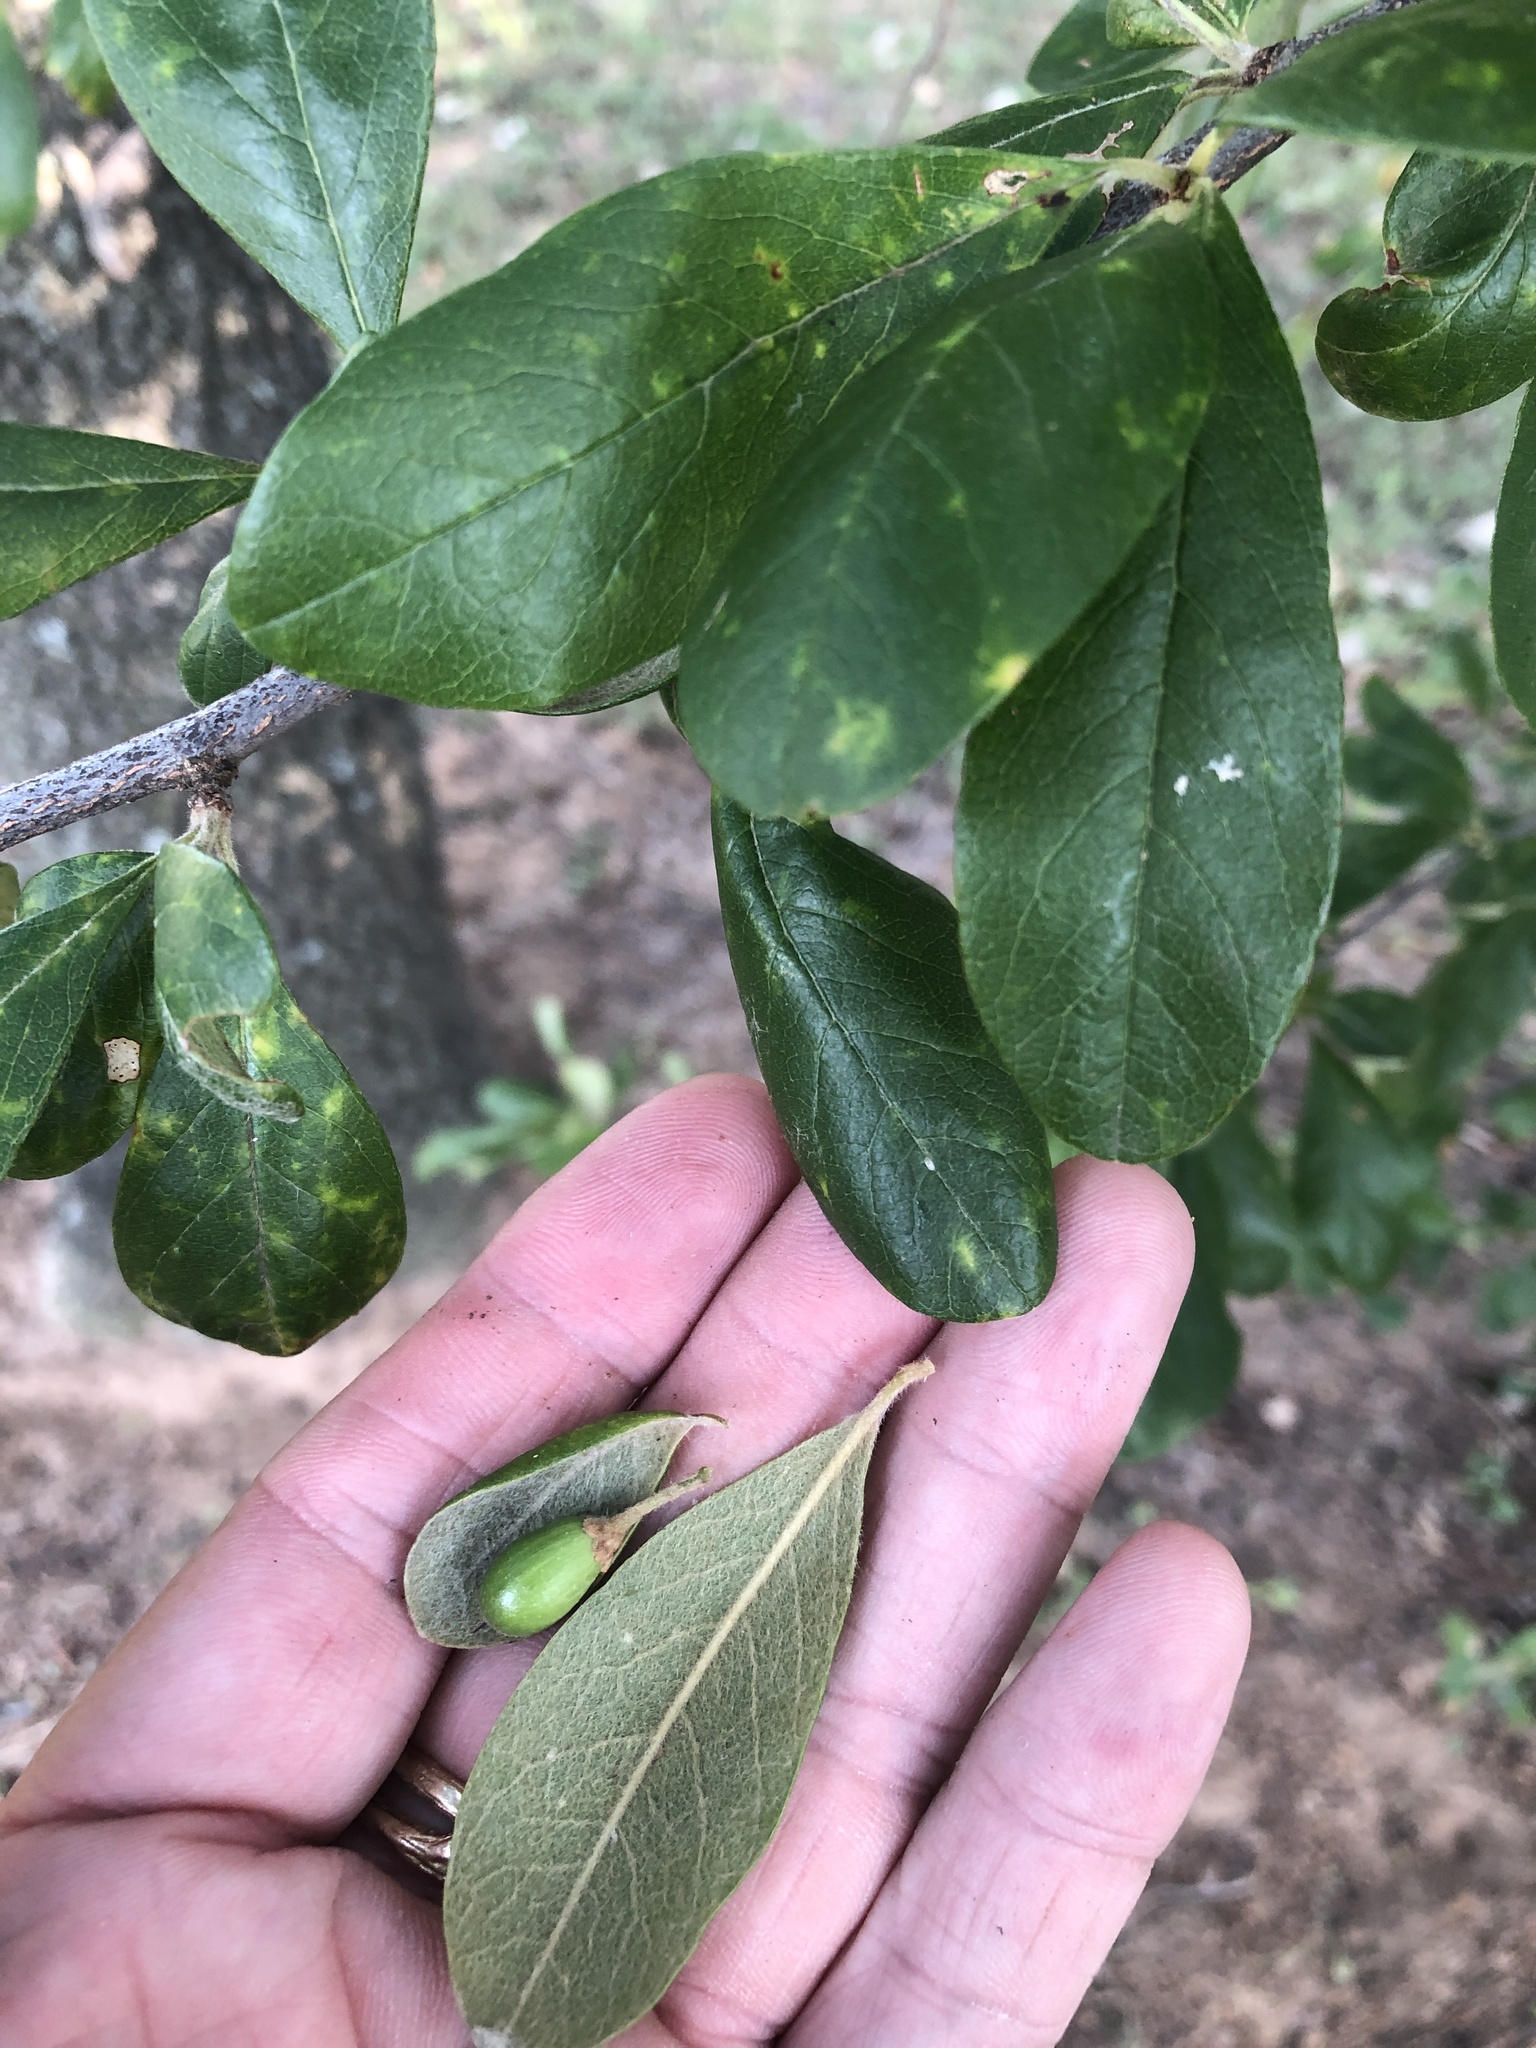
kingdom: Plantae
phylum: Tracheophyta
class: Magnoliopsida
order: Ericales
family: Sapotaceae
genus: Sideroxylon
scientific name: Sideroxylon lanuginosum
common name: Chittamwood
